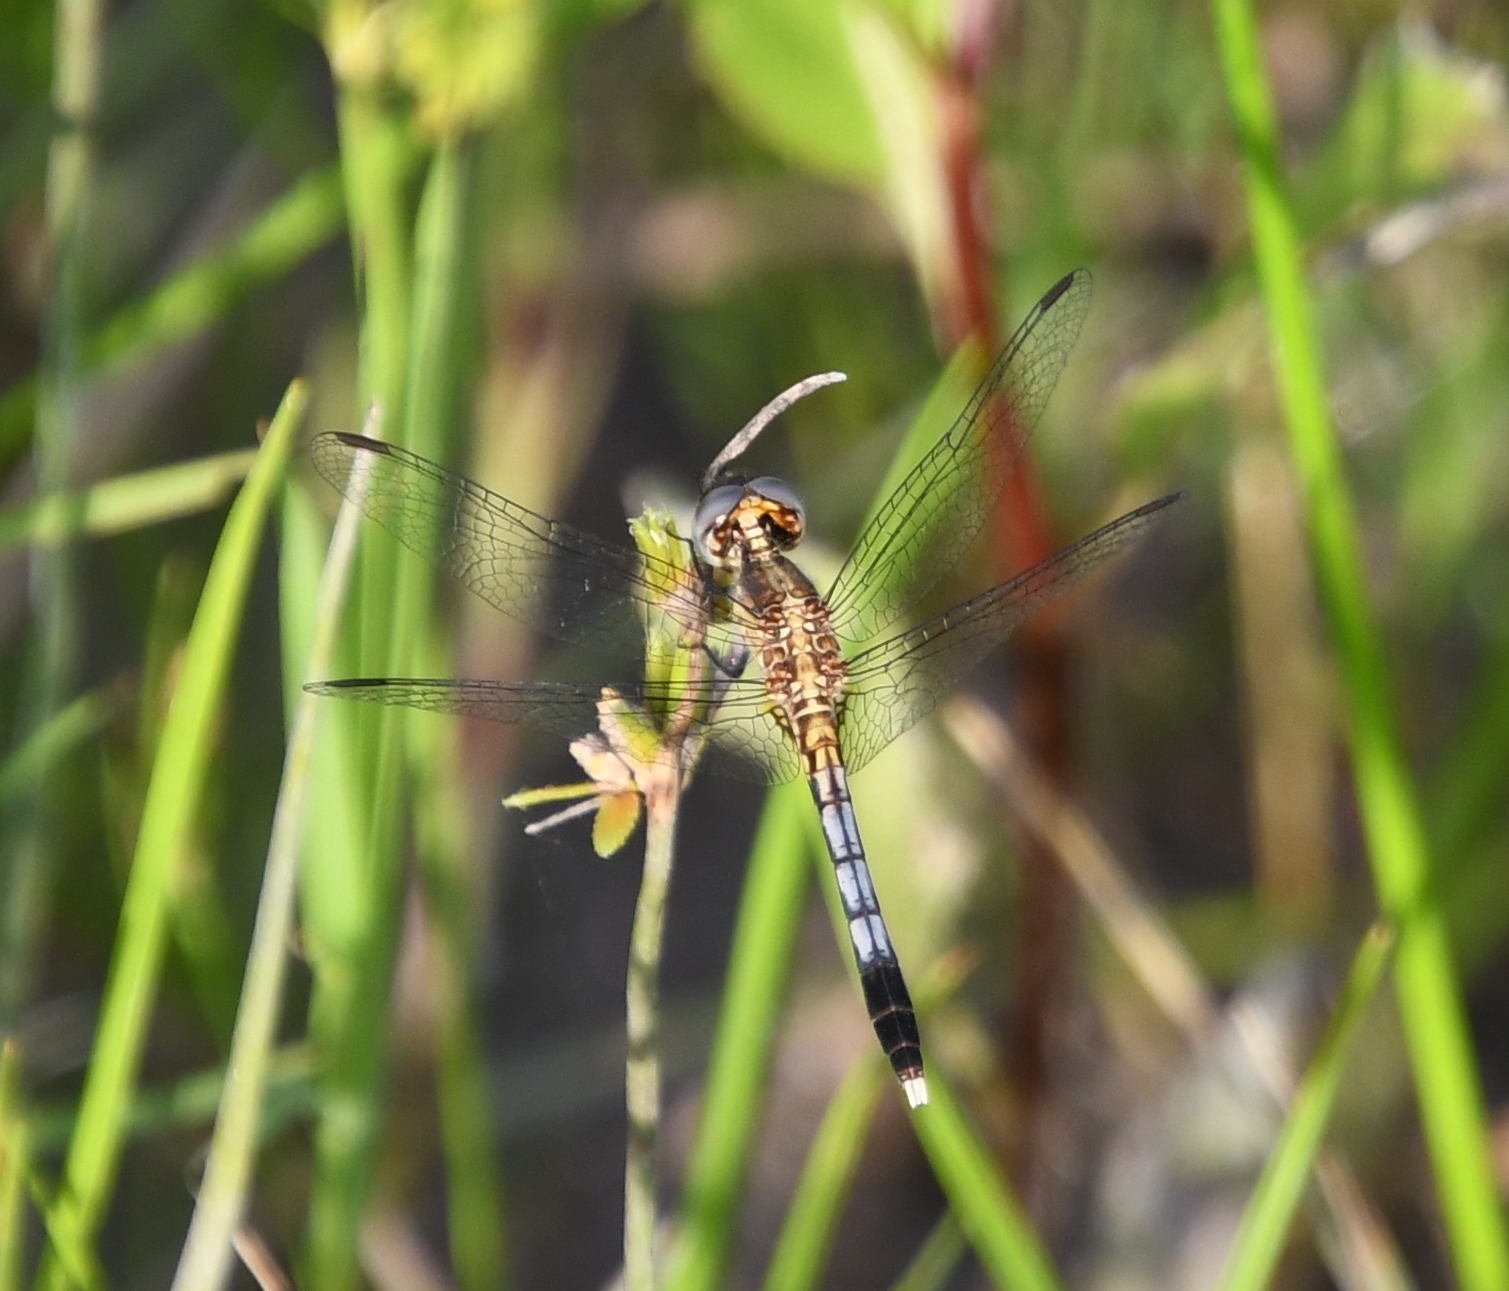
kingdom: Animalia
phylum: Arthropoda
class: Insecta
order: Odonata
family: Libellulidae
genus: Erythrodiplax
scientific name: Erythrodiplax minuscula
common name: Little blue dragonlet
